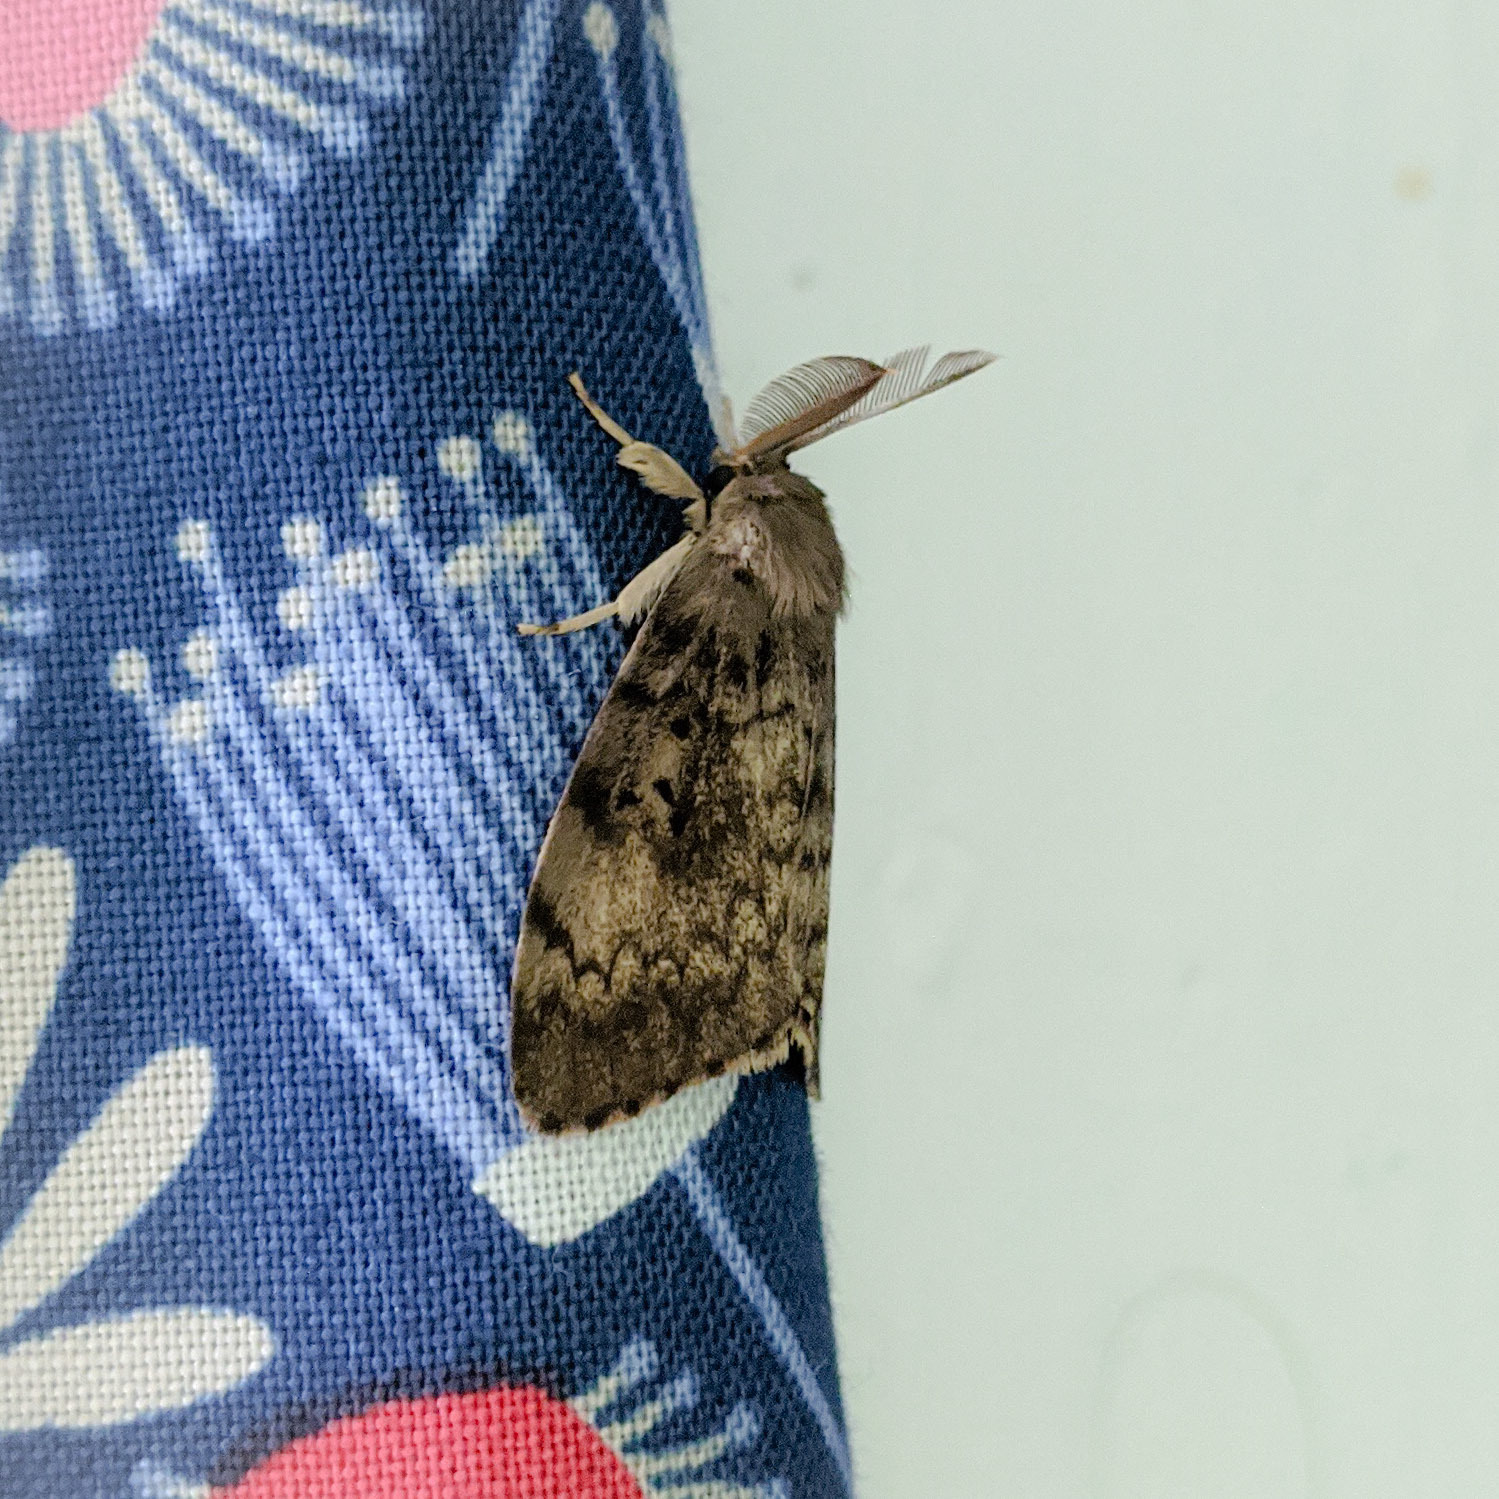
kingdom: Animalia
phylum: Arthropoda
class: Insecta
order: Lepidoptera
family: Erebidae
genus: Lymantria
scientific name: Lymantria dispar
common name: Gypsy moth
